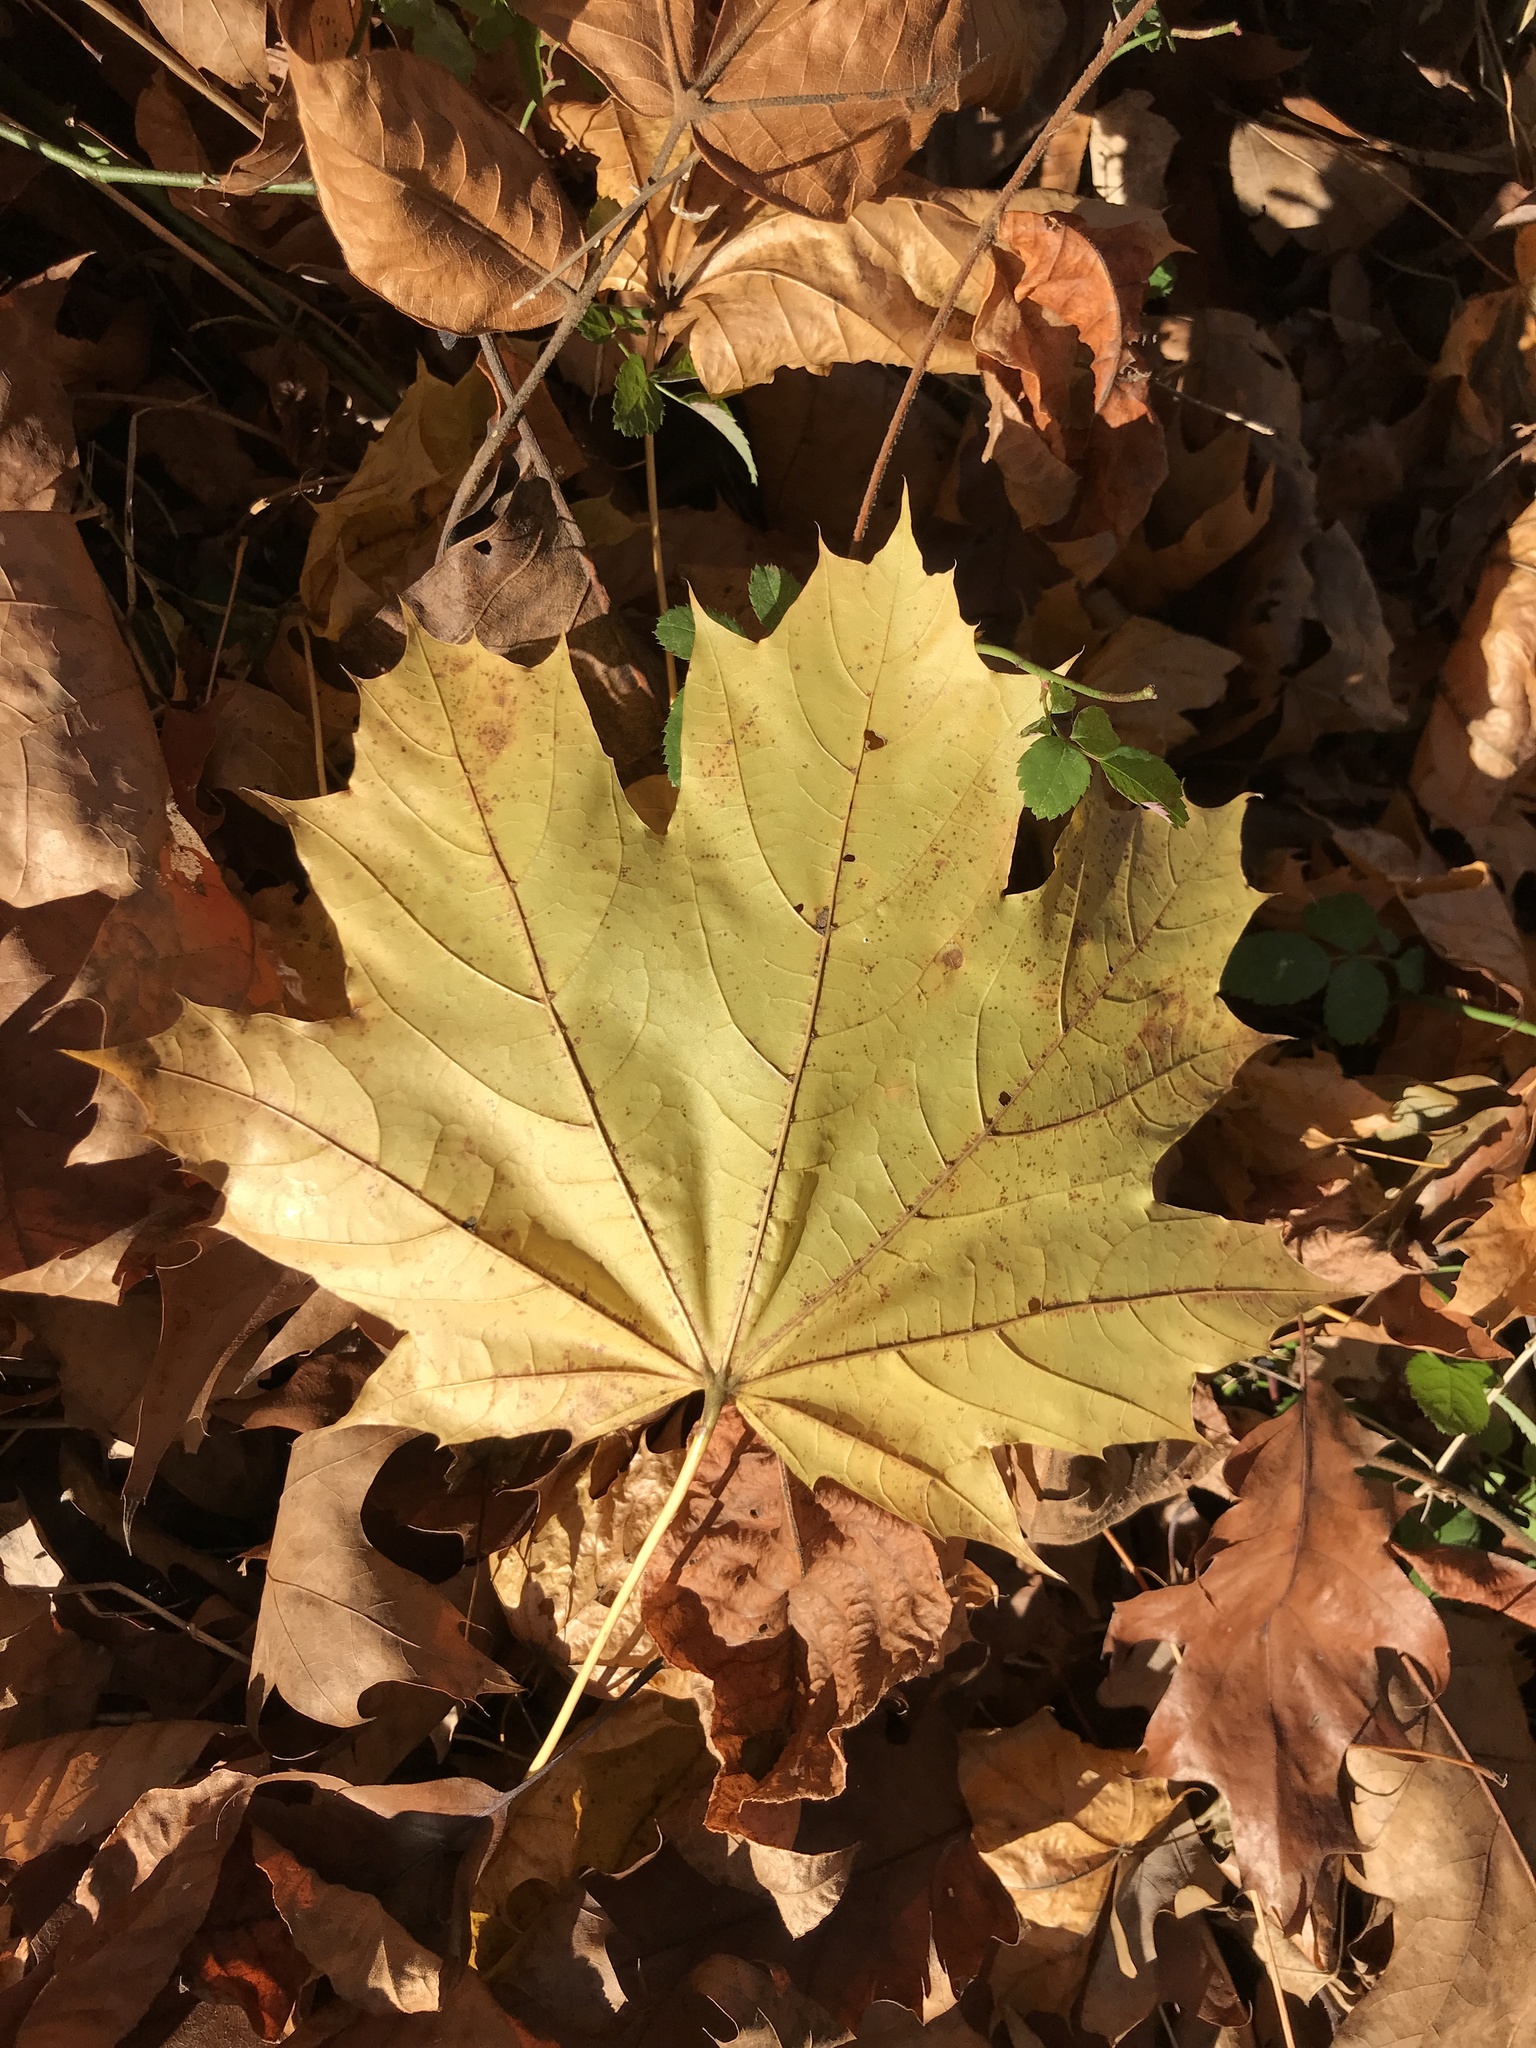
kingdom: Plantae
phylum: Tracheophyta
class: Magnoliopsida
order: Sapindales
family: Sapindaceae
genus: Acer
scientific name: Acer platanoides
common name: Norway maple
